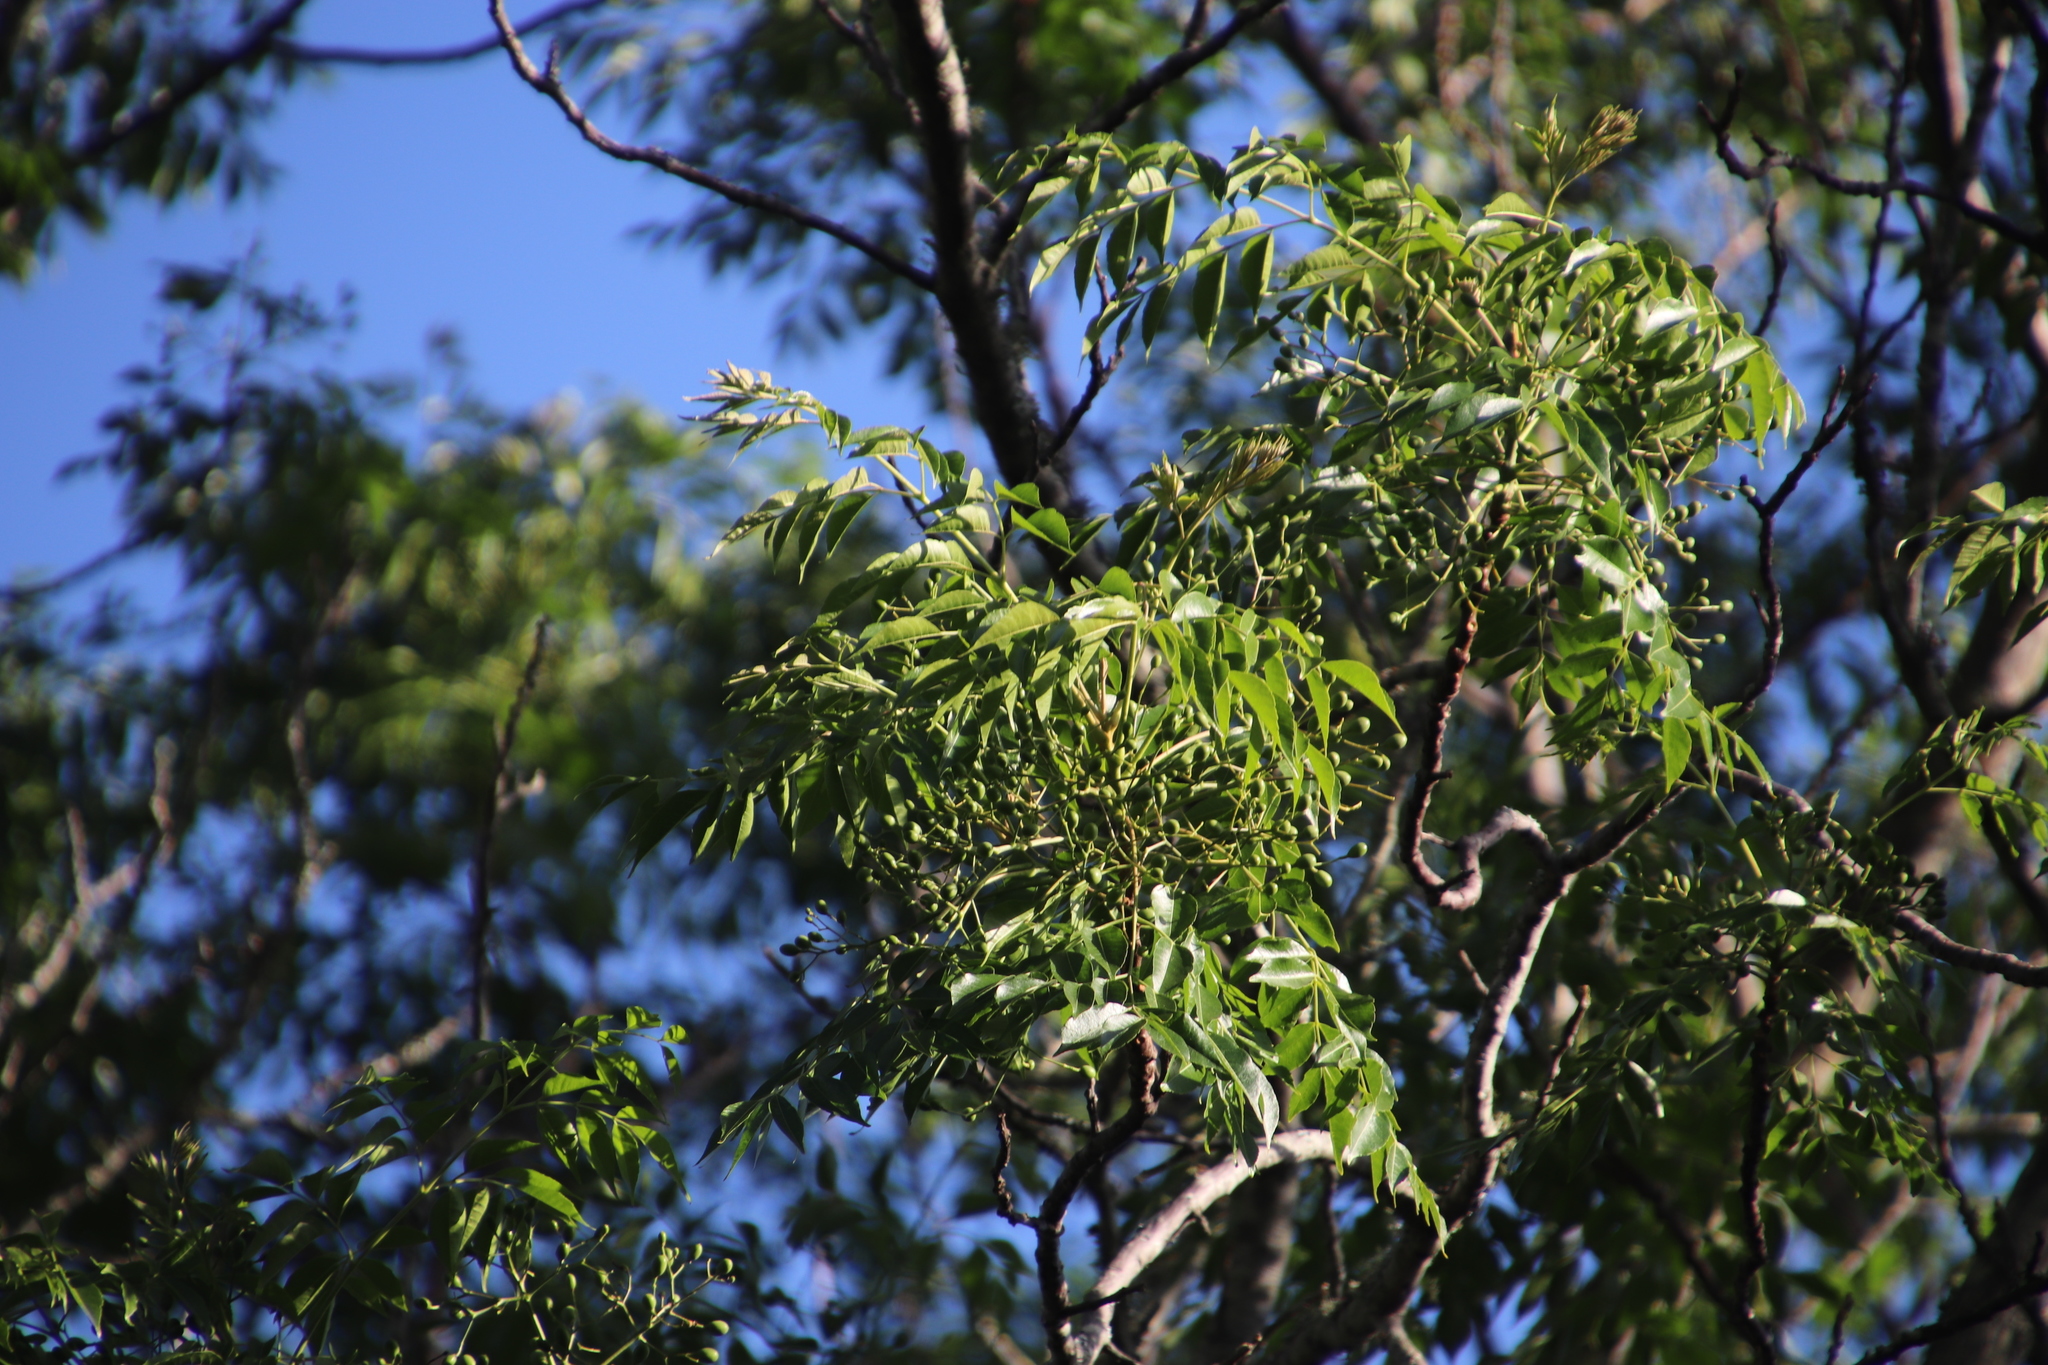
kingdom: Plantae
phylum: Tracheophyta
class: Magnoliopsida
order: Sapindales
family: Meliaceae
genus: Melia
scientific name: Melia azedarach
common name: Chinaberrytree
